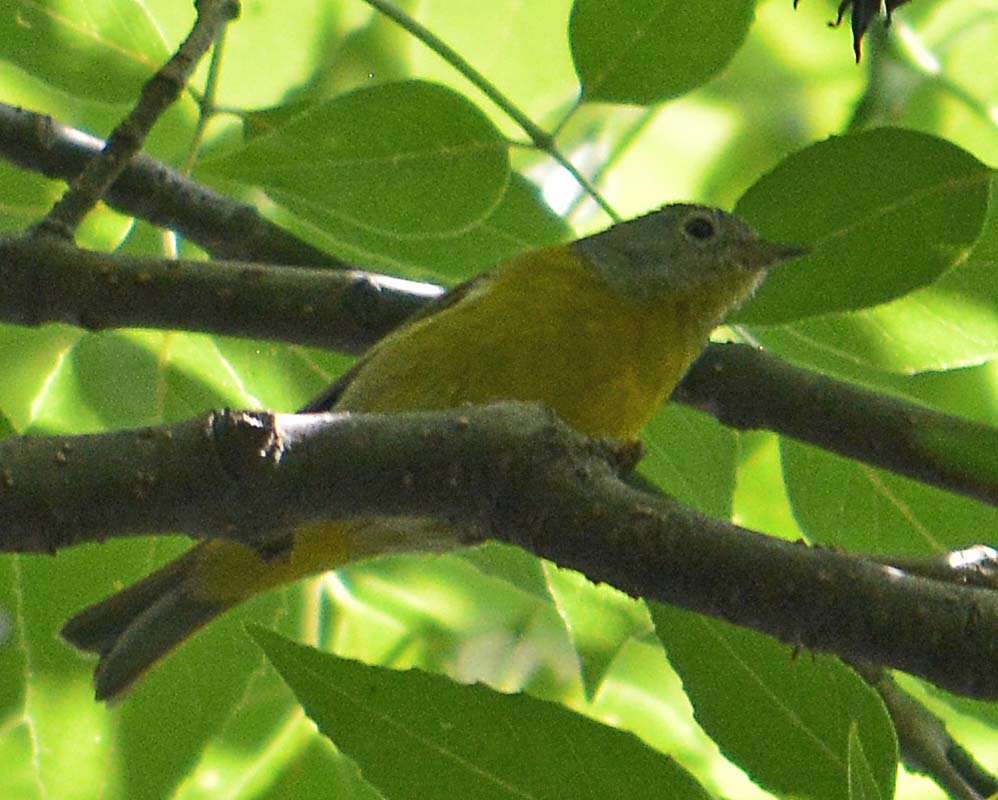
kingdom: Animalia
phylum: Chordata
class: Aves
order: Passeriformes
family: Parulidae
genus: Leiothlypis
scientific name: Leiothlypis ruficapilla
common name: Nashville warbler
